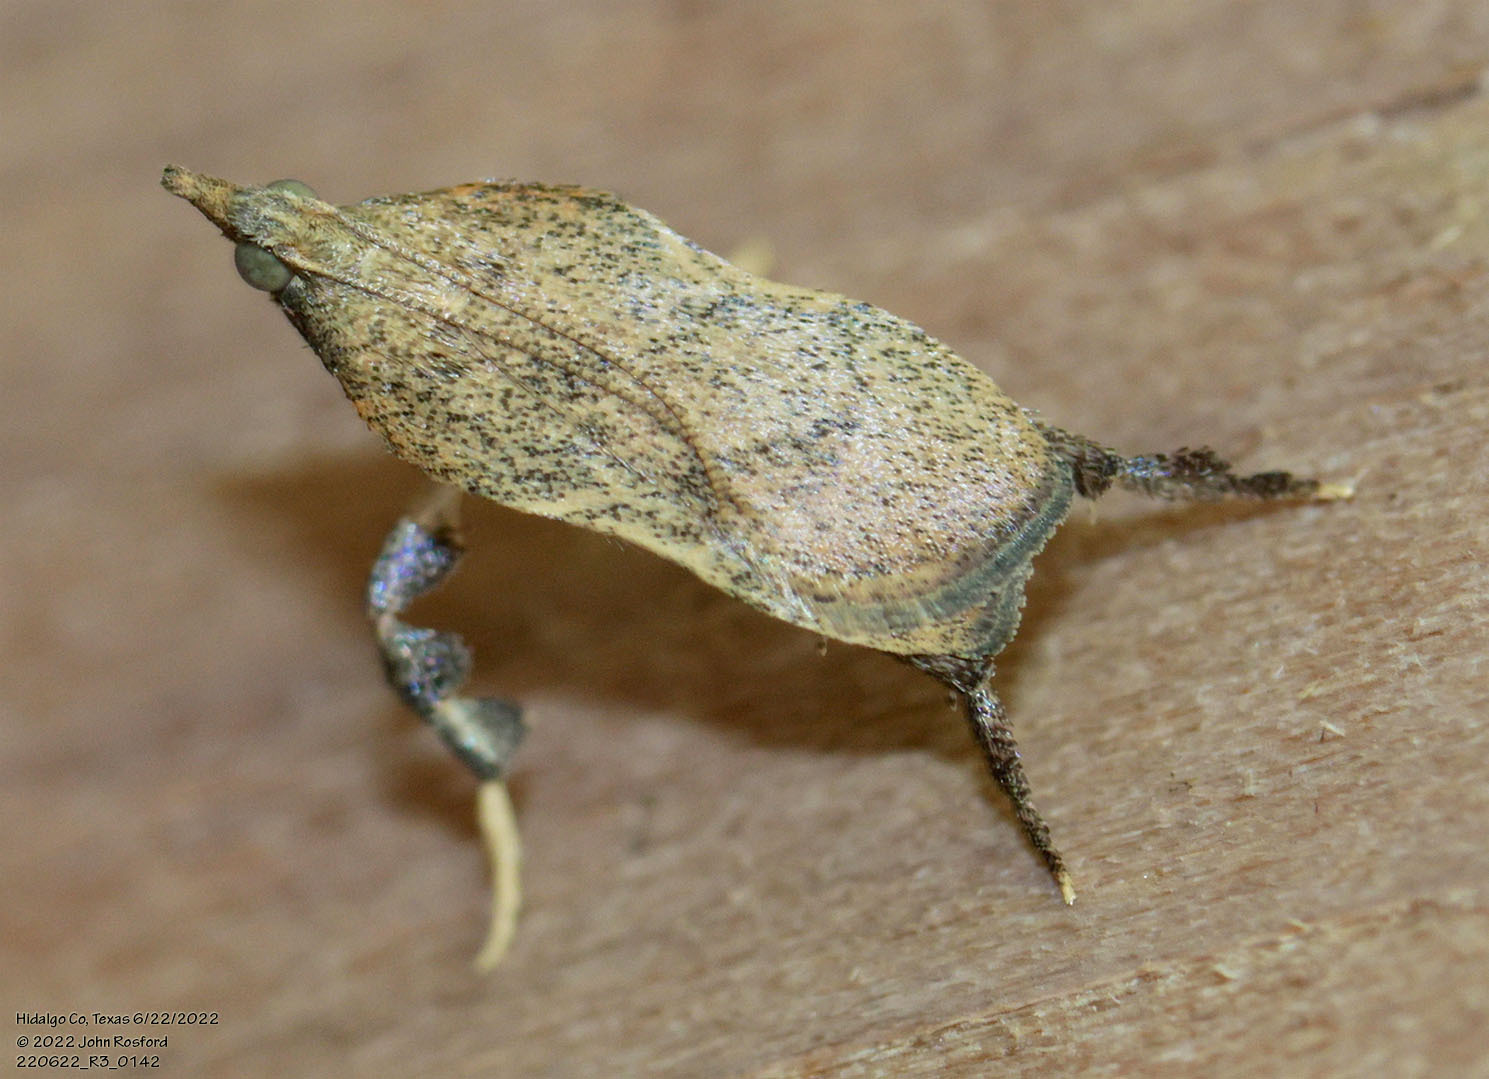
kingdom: Animalia
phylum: Arthropoda
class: Insecta
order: Lepidoptera
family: Pyralidae
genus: Negalasa
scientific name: Negalasa fumalis
